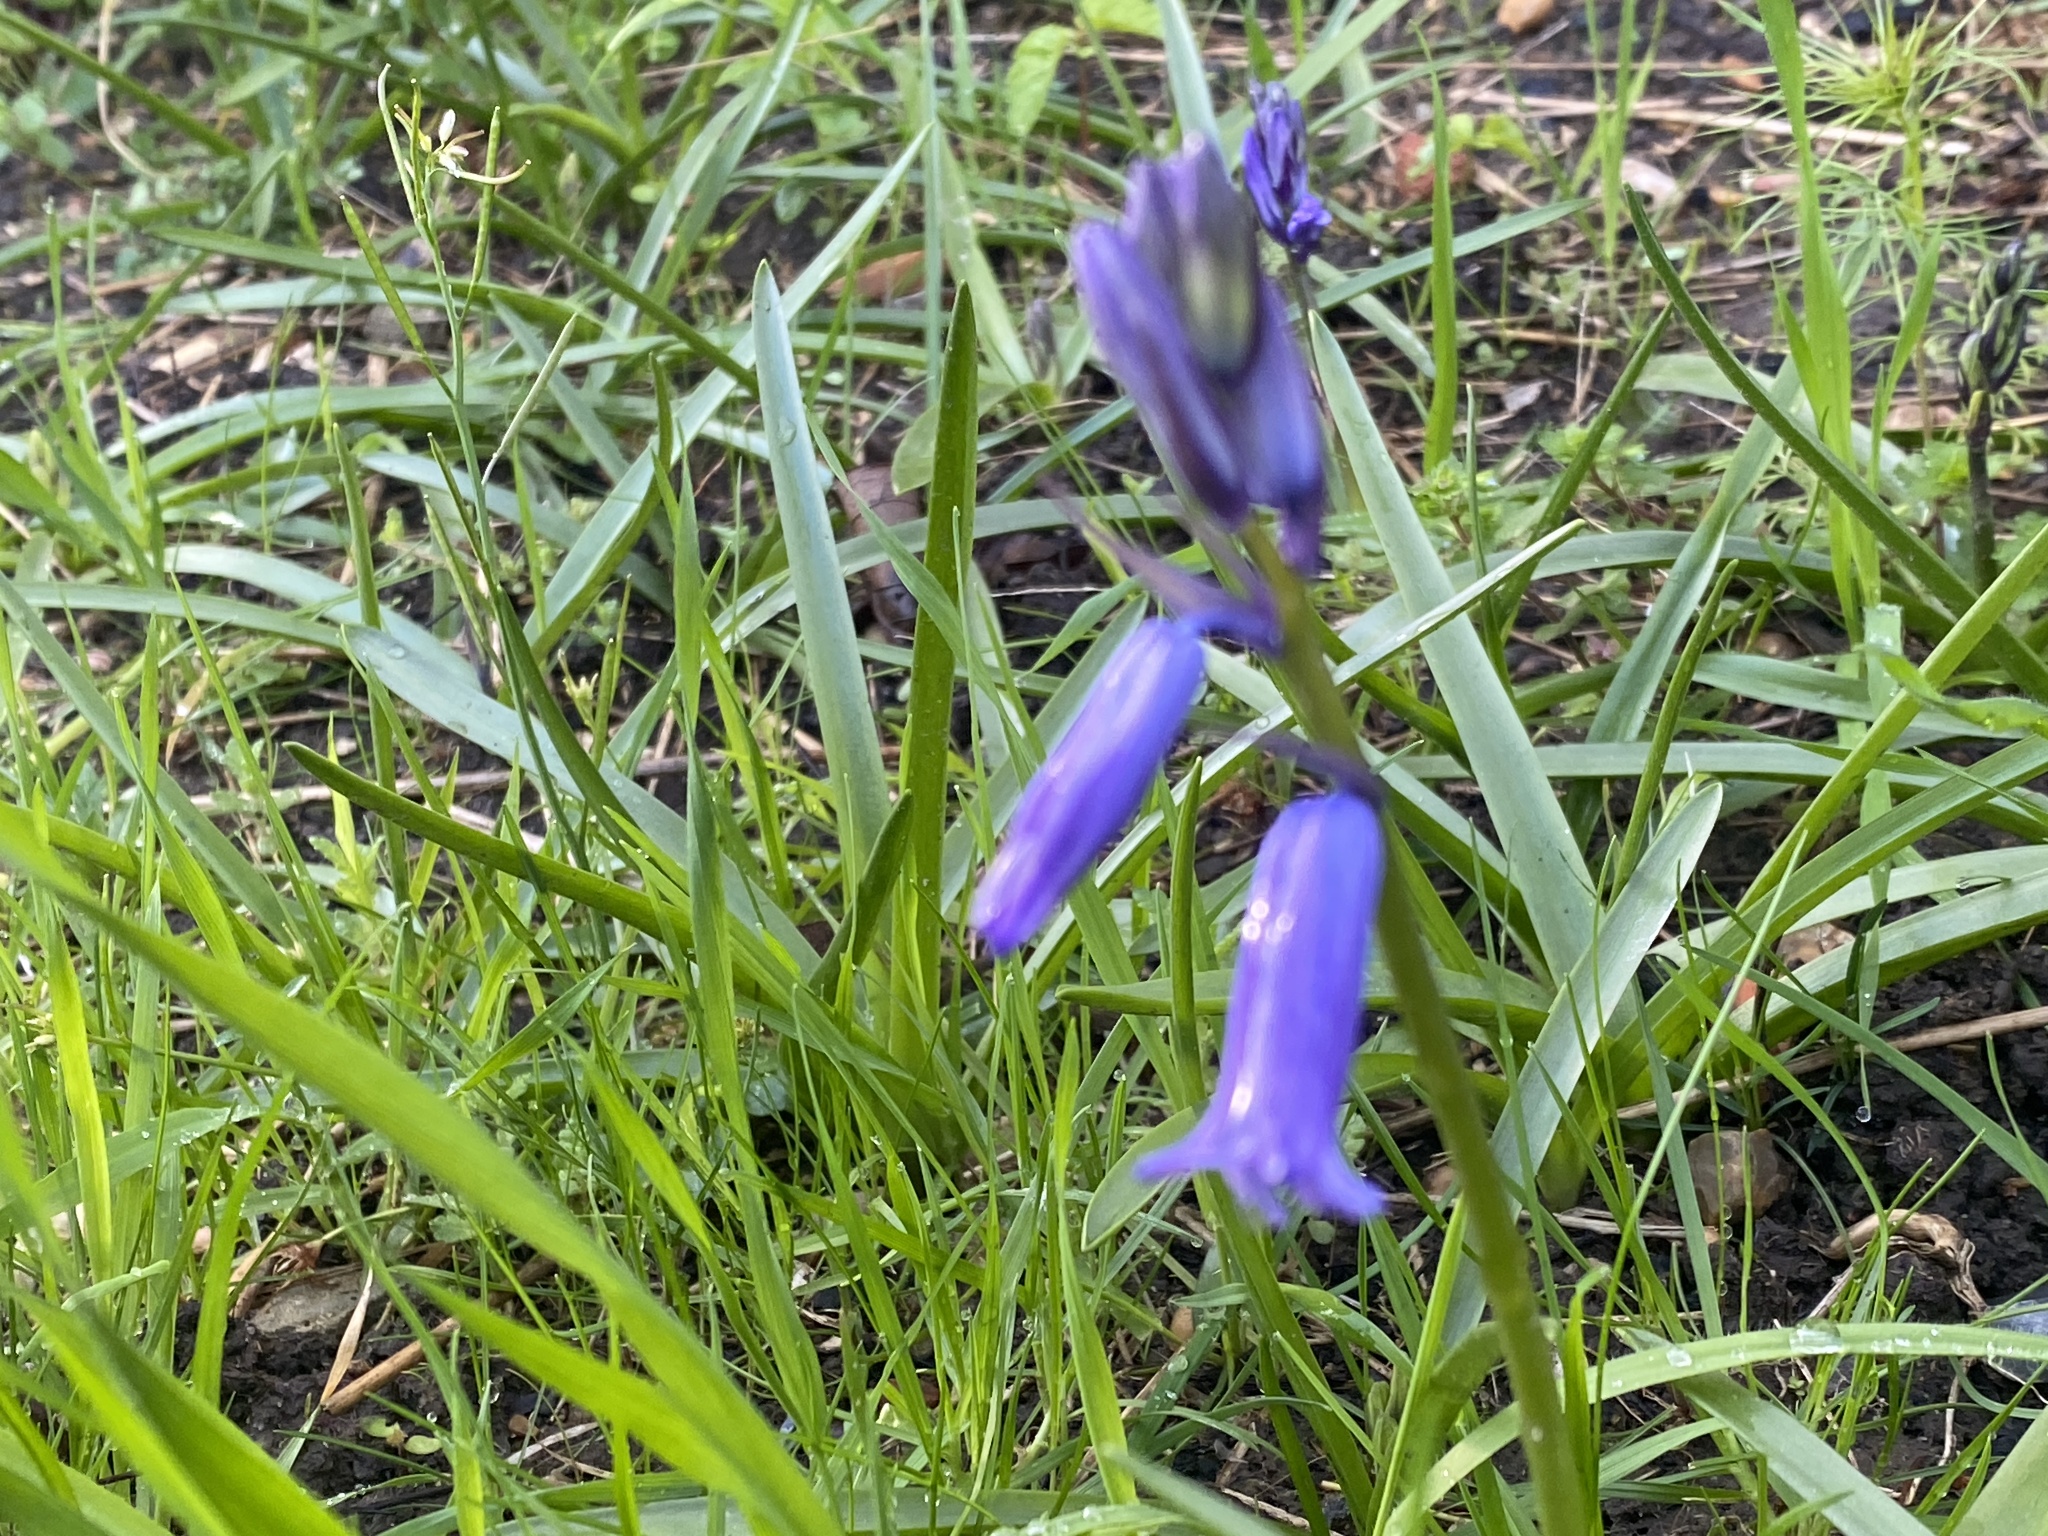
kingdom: Plantae
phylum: Tracheophyta
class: Liliopsida
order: Asparagales
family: Asparagaceae
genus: Hyacinthoides
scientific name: Hyacinthoides non-scripta
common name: Bluebell
